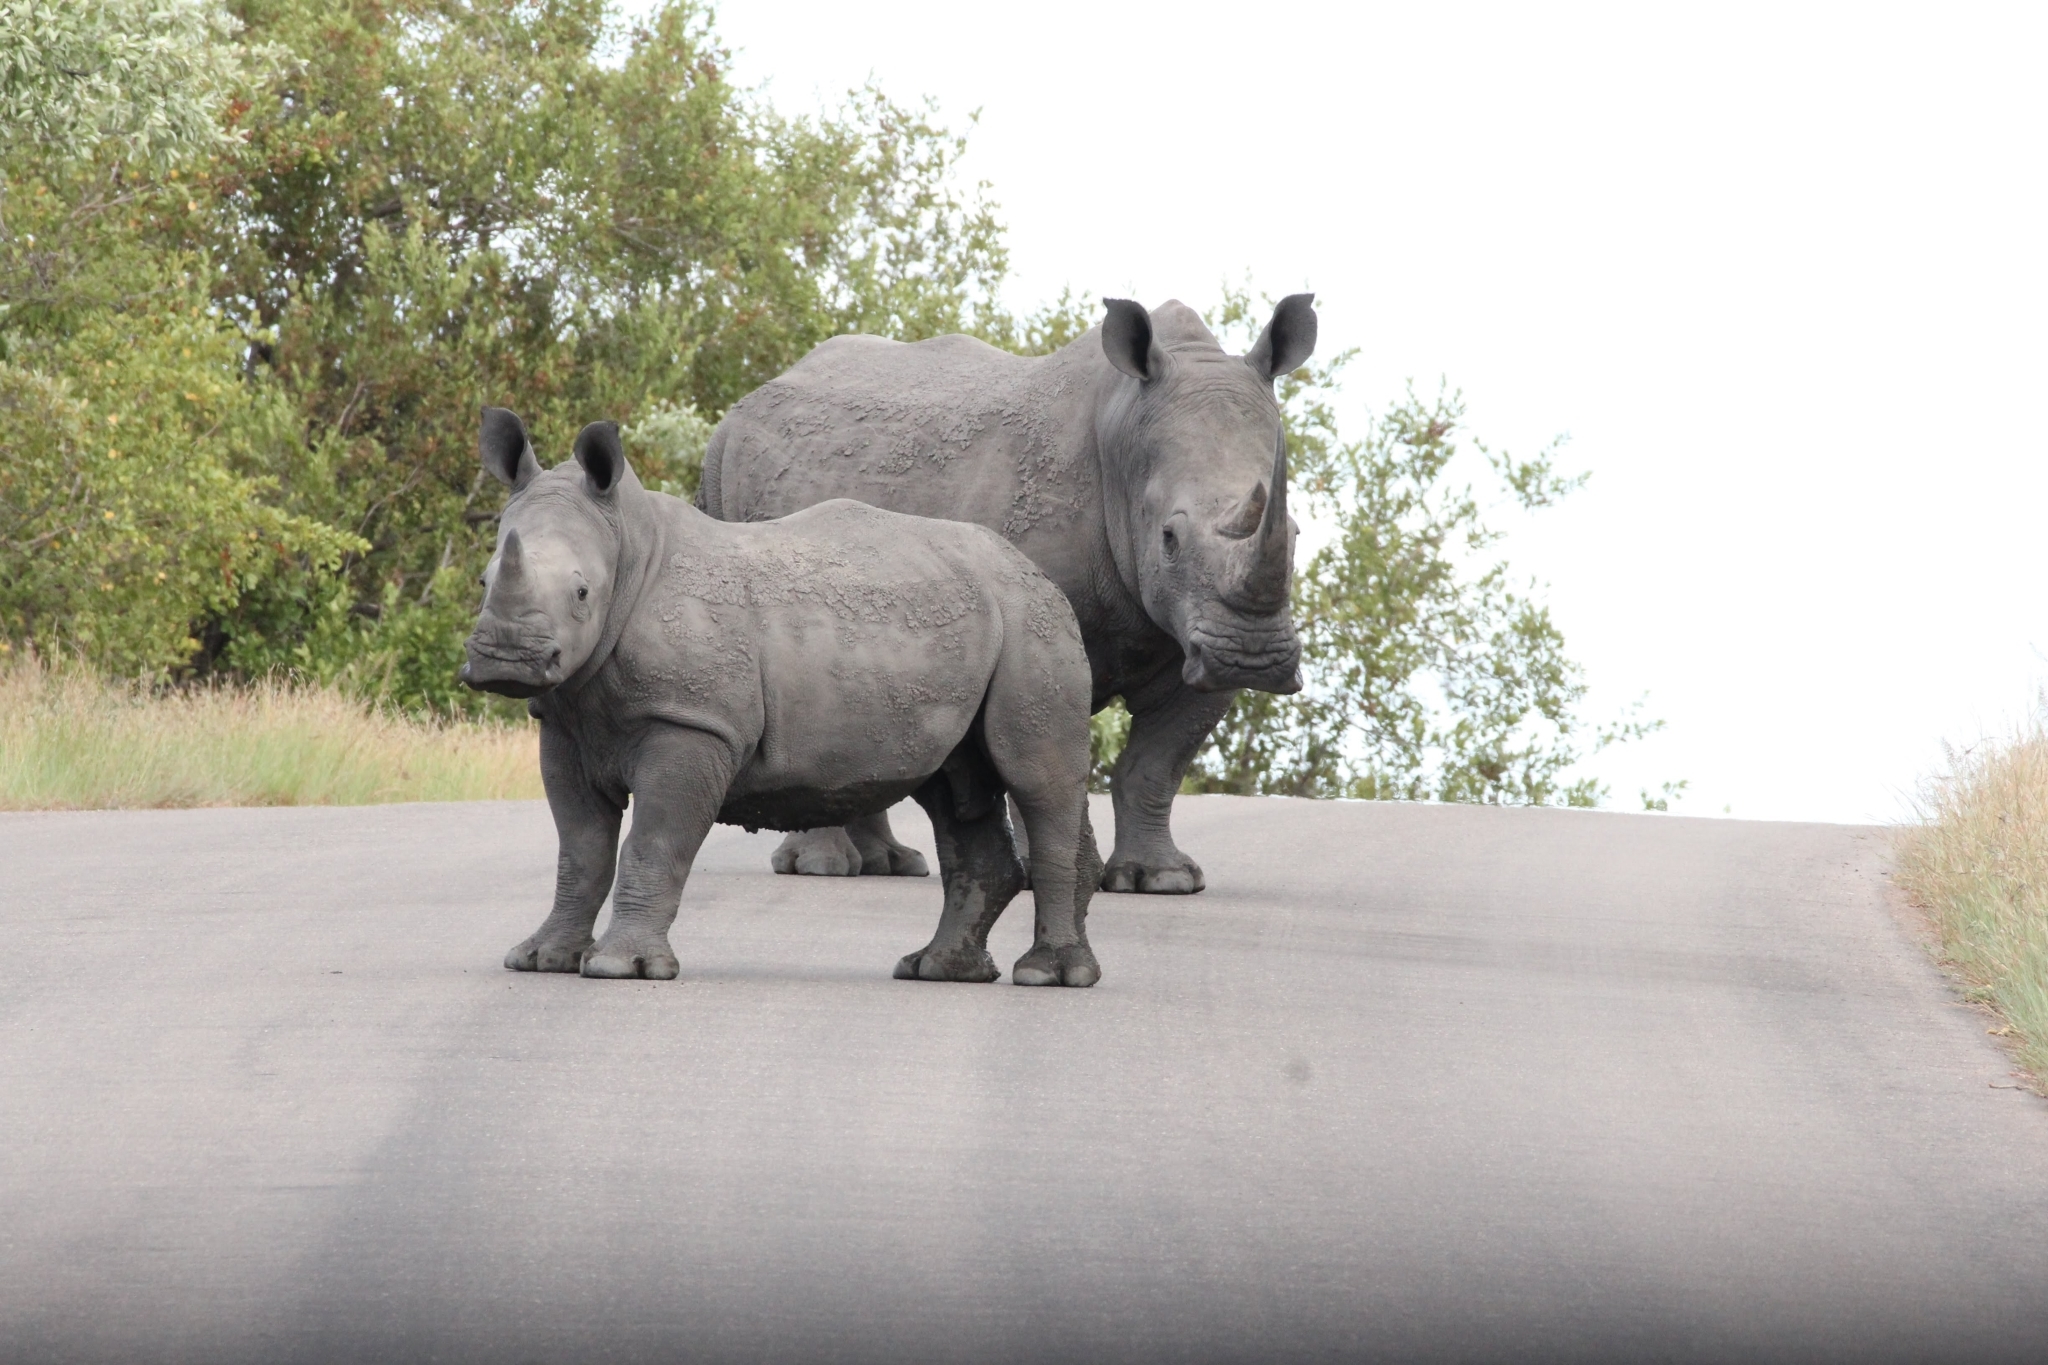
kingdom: Animalia
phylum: Chordata
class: Mammalia
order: Perissodactyla
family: Rhinocerotidae
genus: Ceratotherium
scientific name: Ceratotherium simum
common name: White rhinoceros
